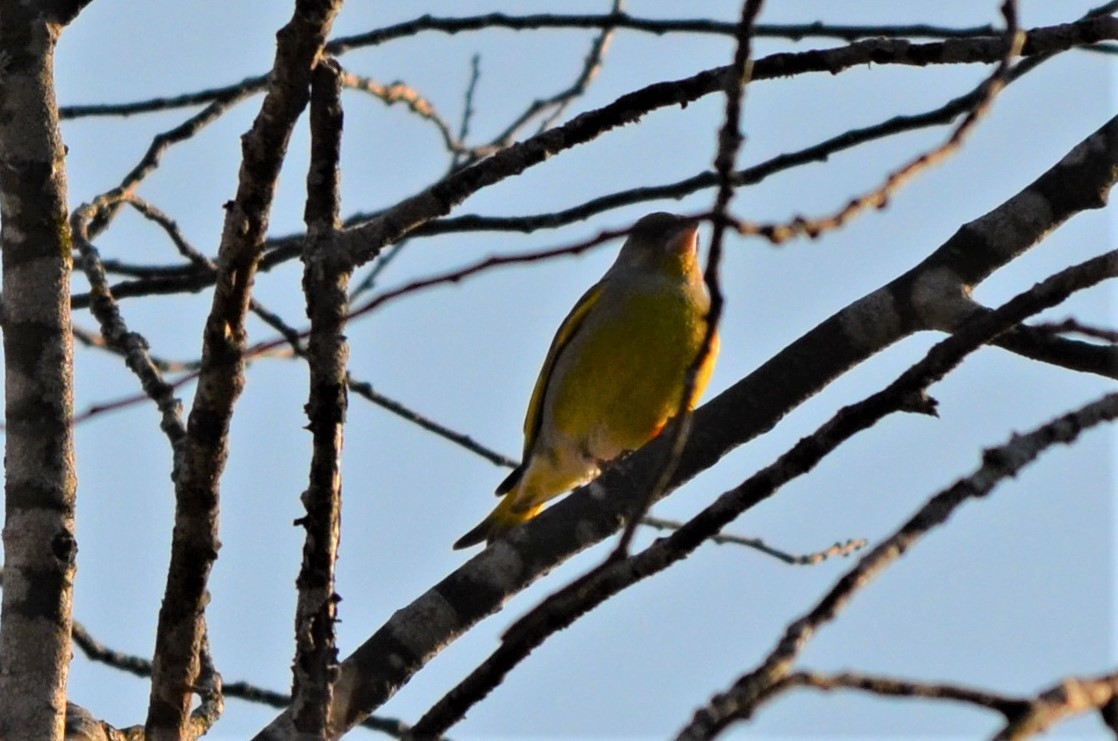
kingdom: Plantae
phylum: Tracheophyta
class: Liliopsida
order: Poales
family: Poaceae
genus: Chloris
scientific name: Chloris chloris
